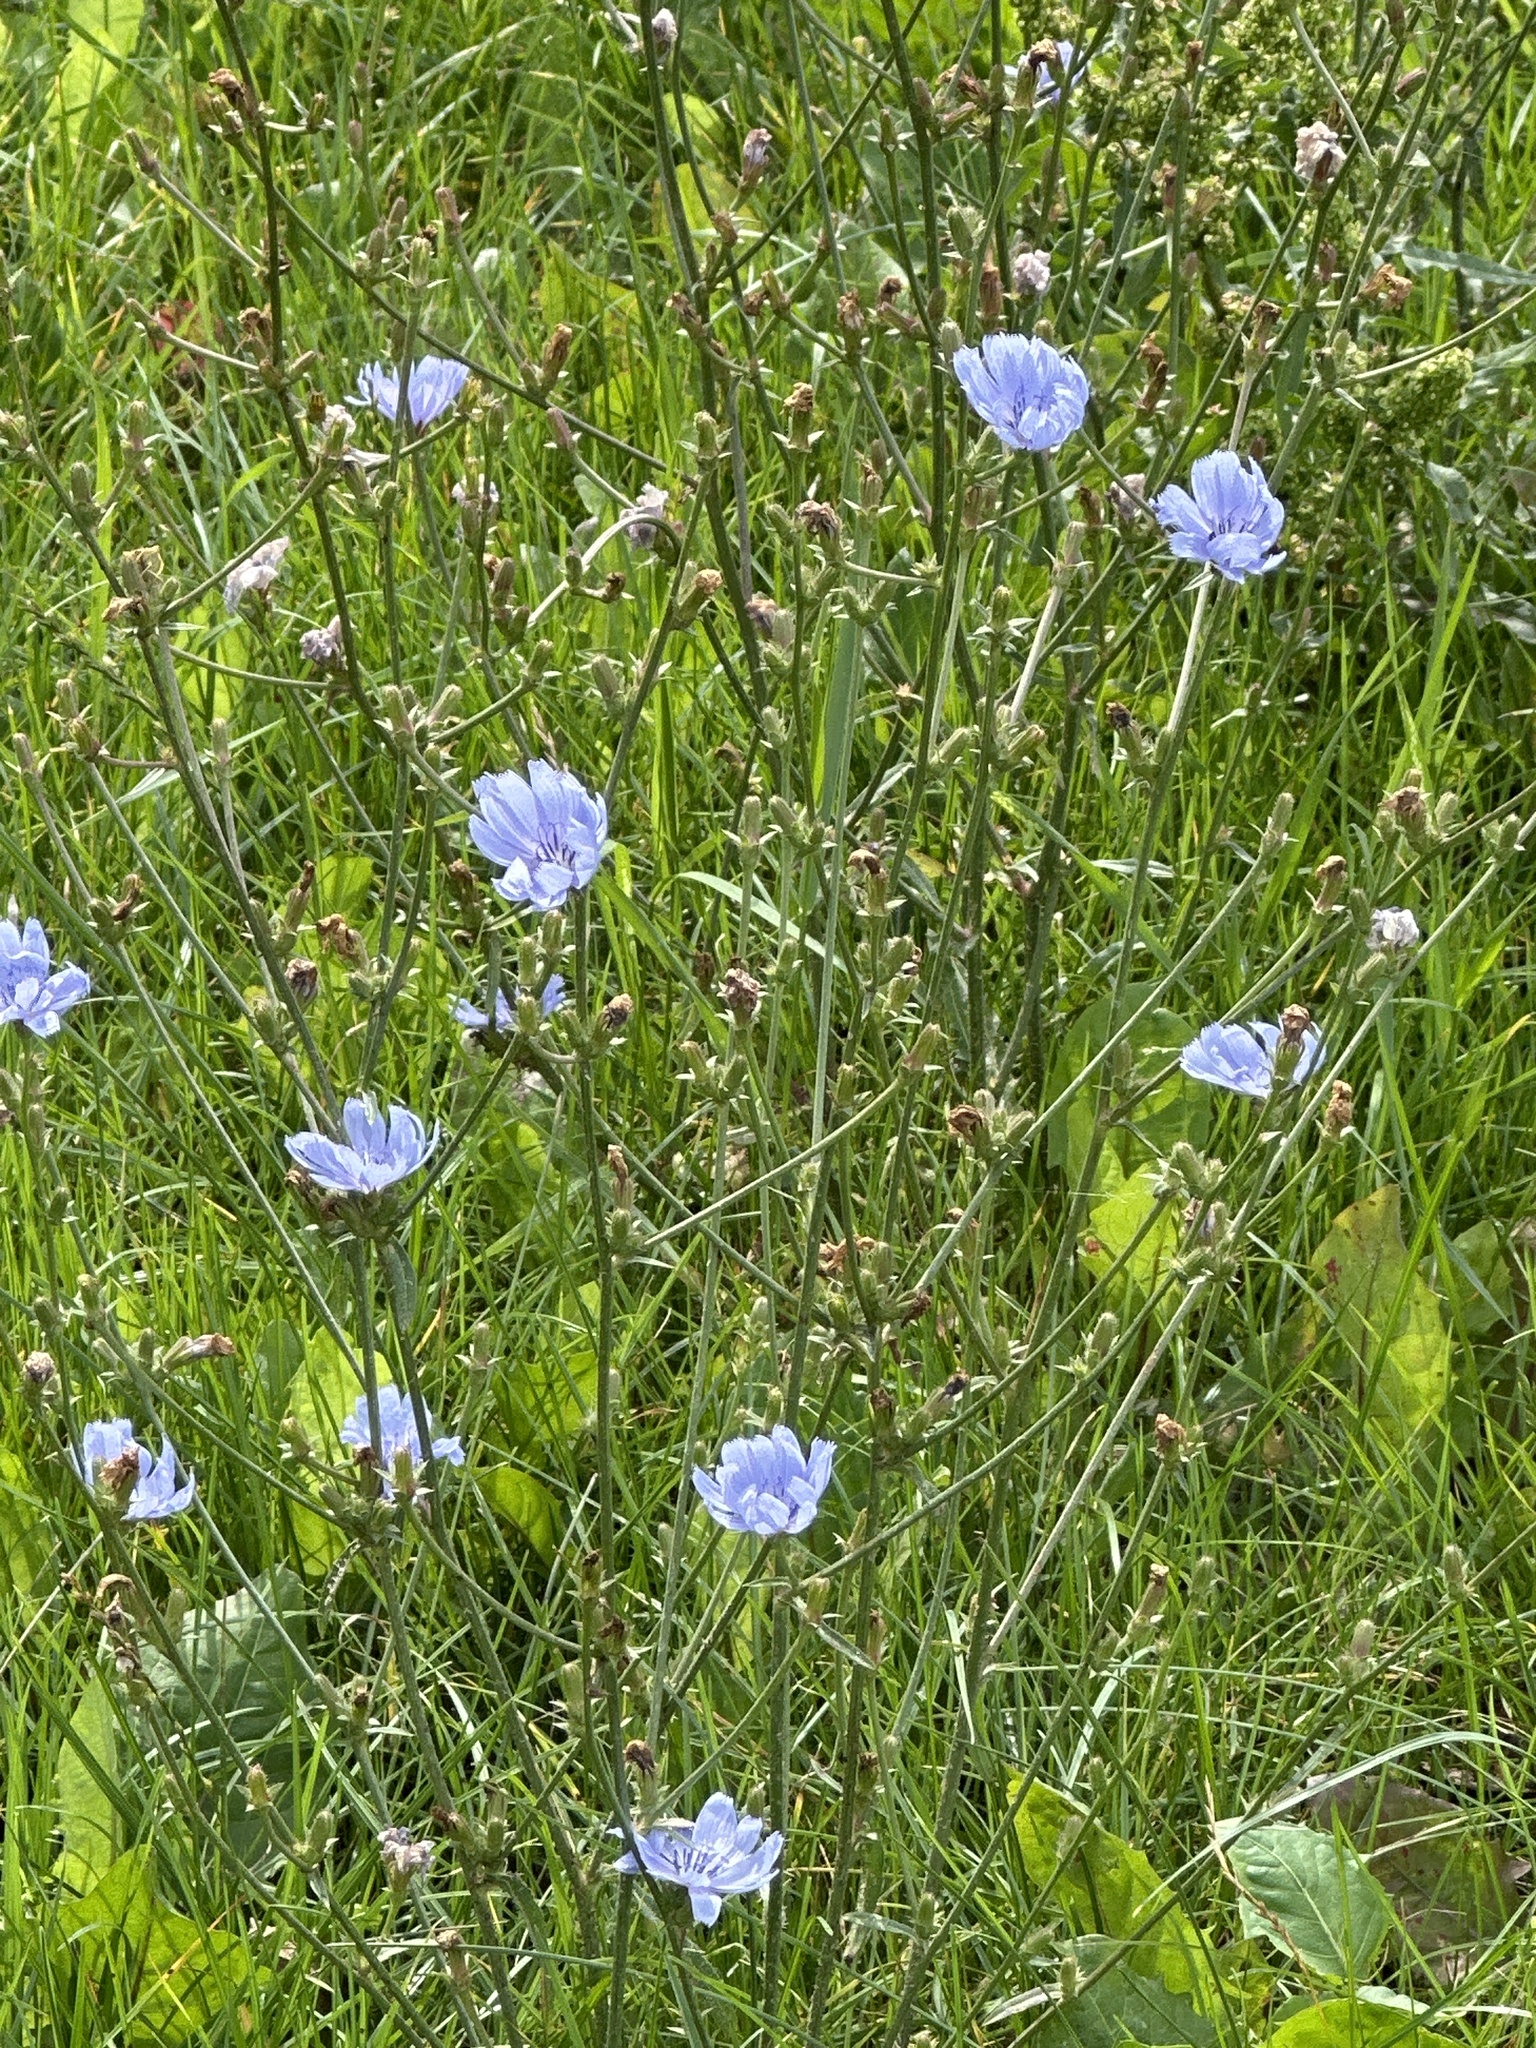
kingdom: Plantae
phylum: Tracheophyta
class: Magnoliopsida
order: Asterales
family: Asteraceae
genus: Cichorium
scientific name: Cichorium intybus
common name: Chicory
